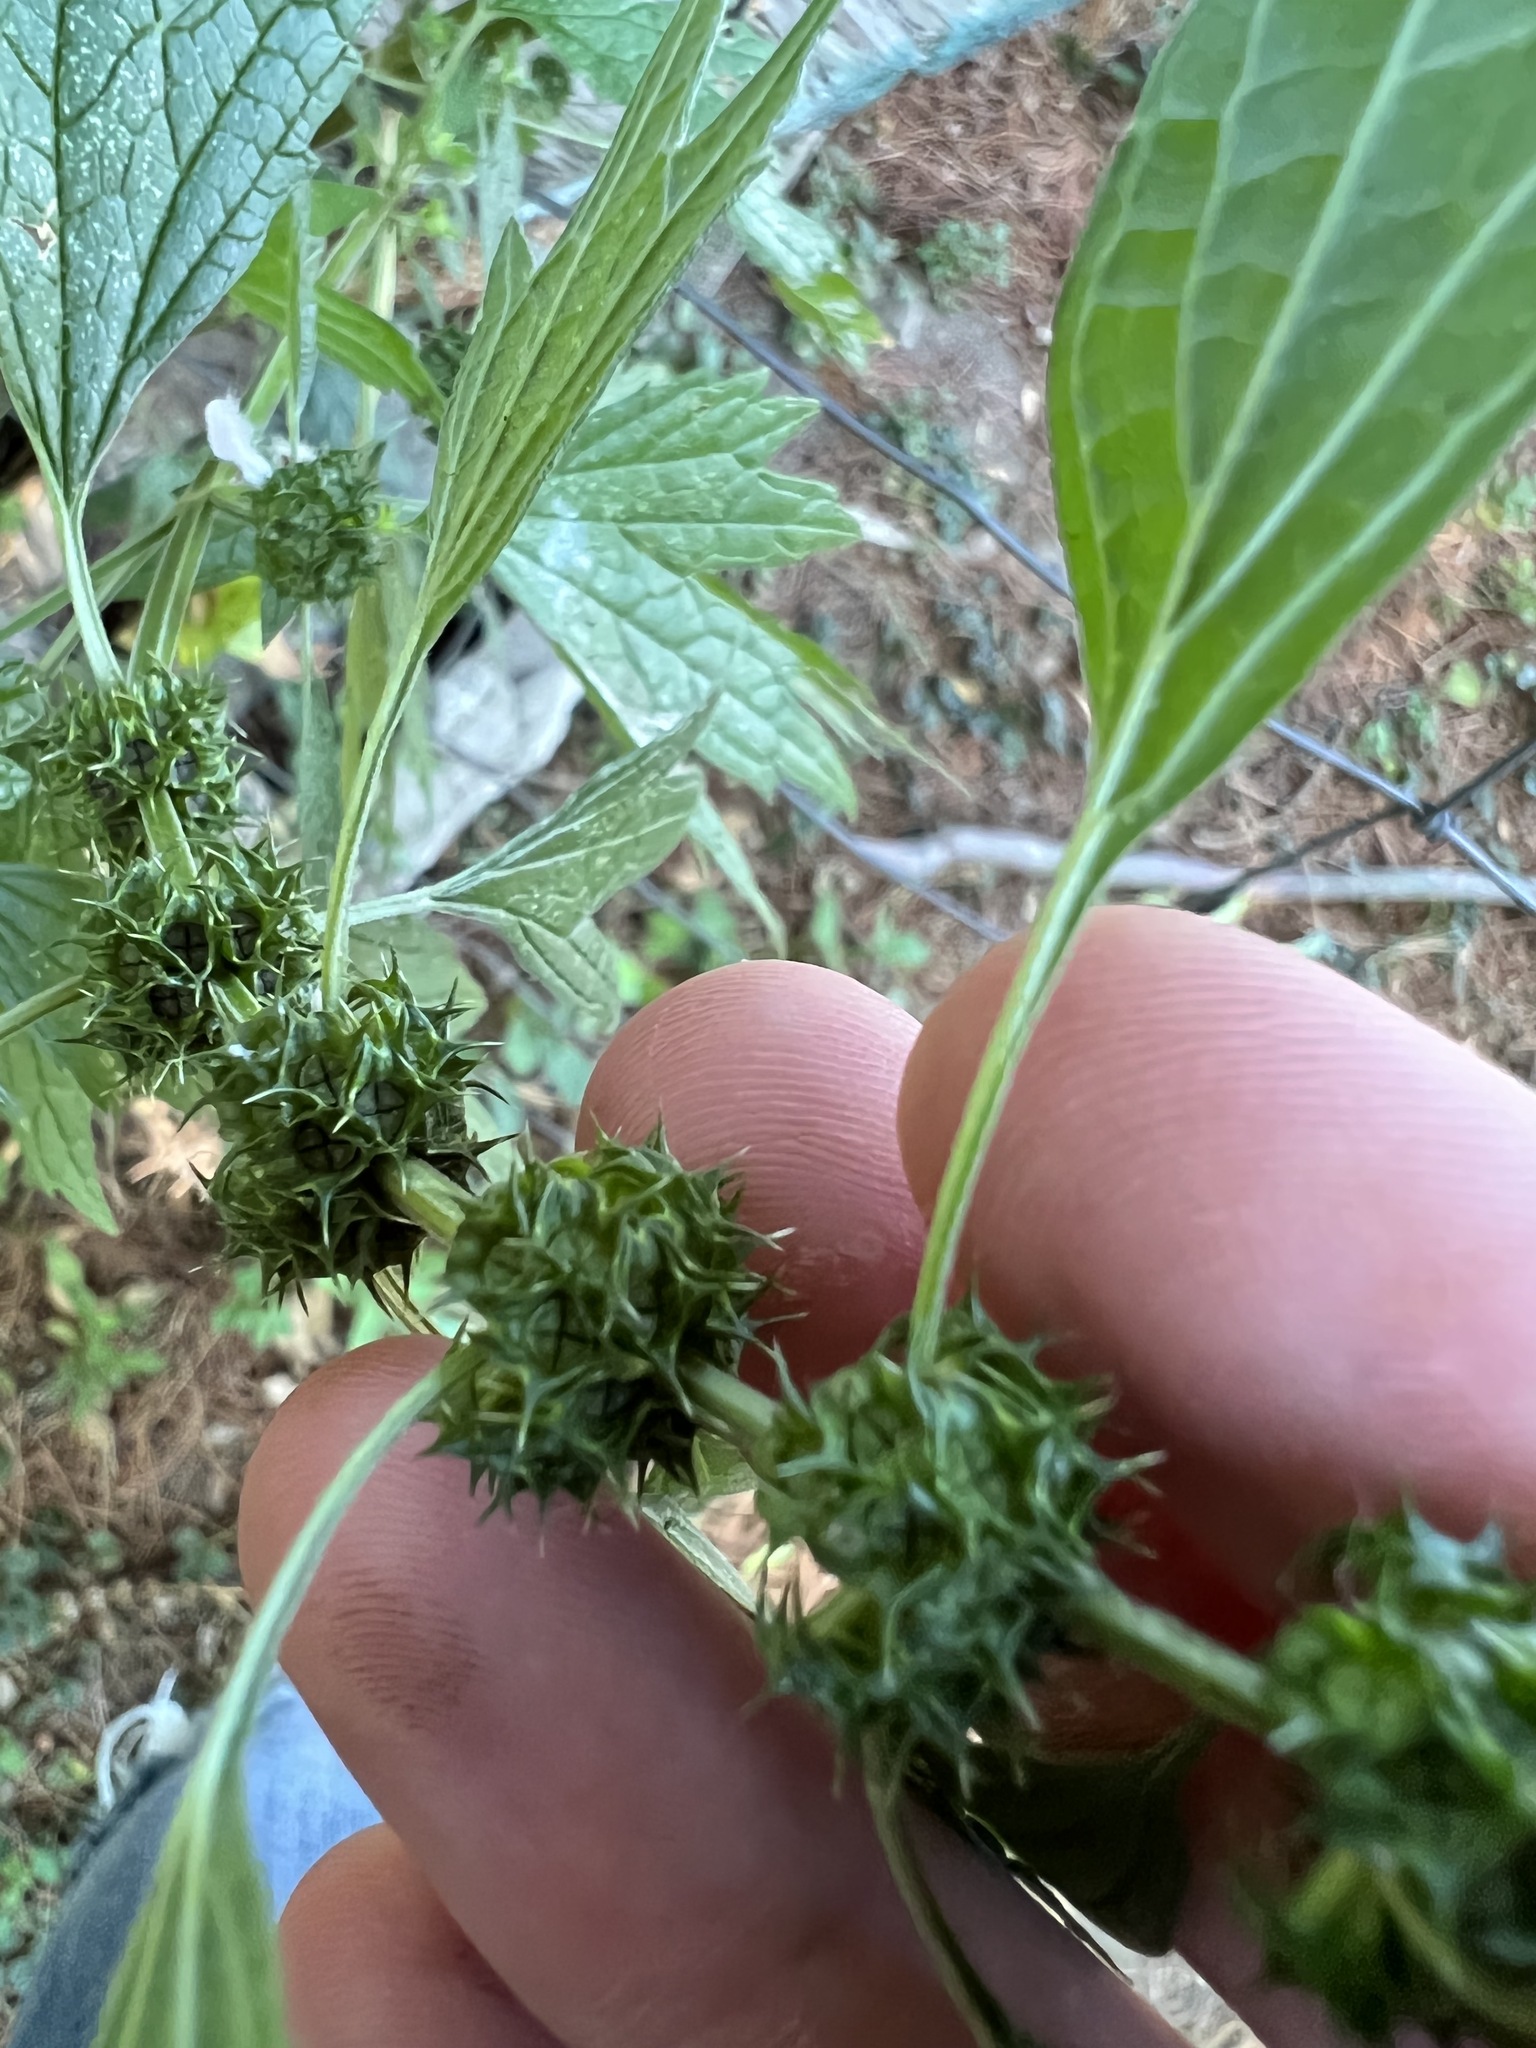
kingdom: Plantae
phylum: Tracheophyta
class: Magnoliopsida
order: Lamiales
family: Lamiaceae
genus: Leonurus
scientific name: Leonurus cardiaca
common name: Motherwort
